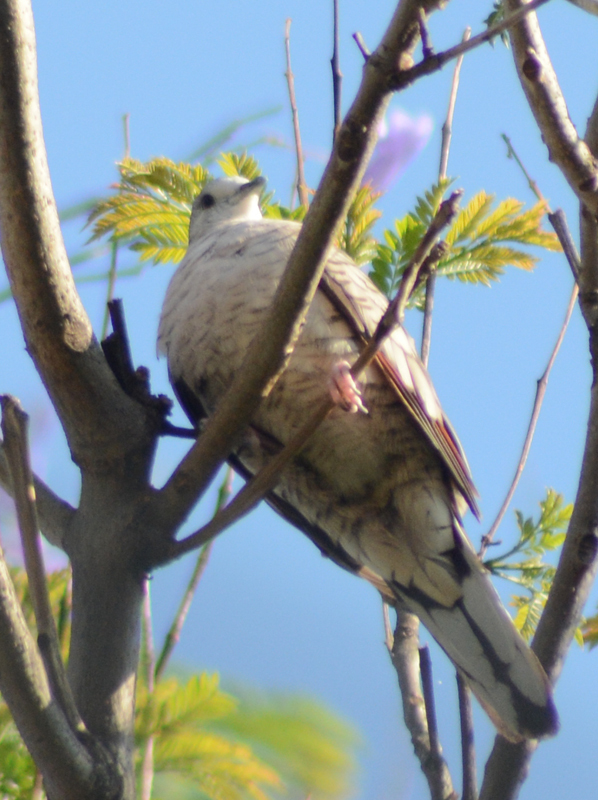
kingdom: Animalia
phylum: Chordata
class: Aves
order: Columbiformes
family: Columbidae
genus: Columbina
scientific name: Columbina inca
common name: Inca dove
